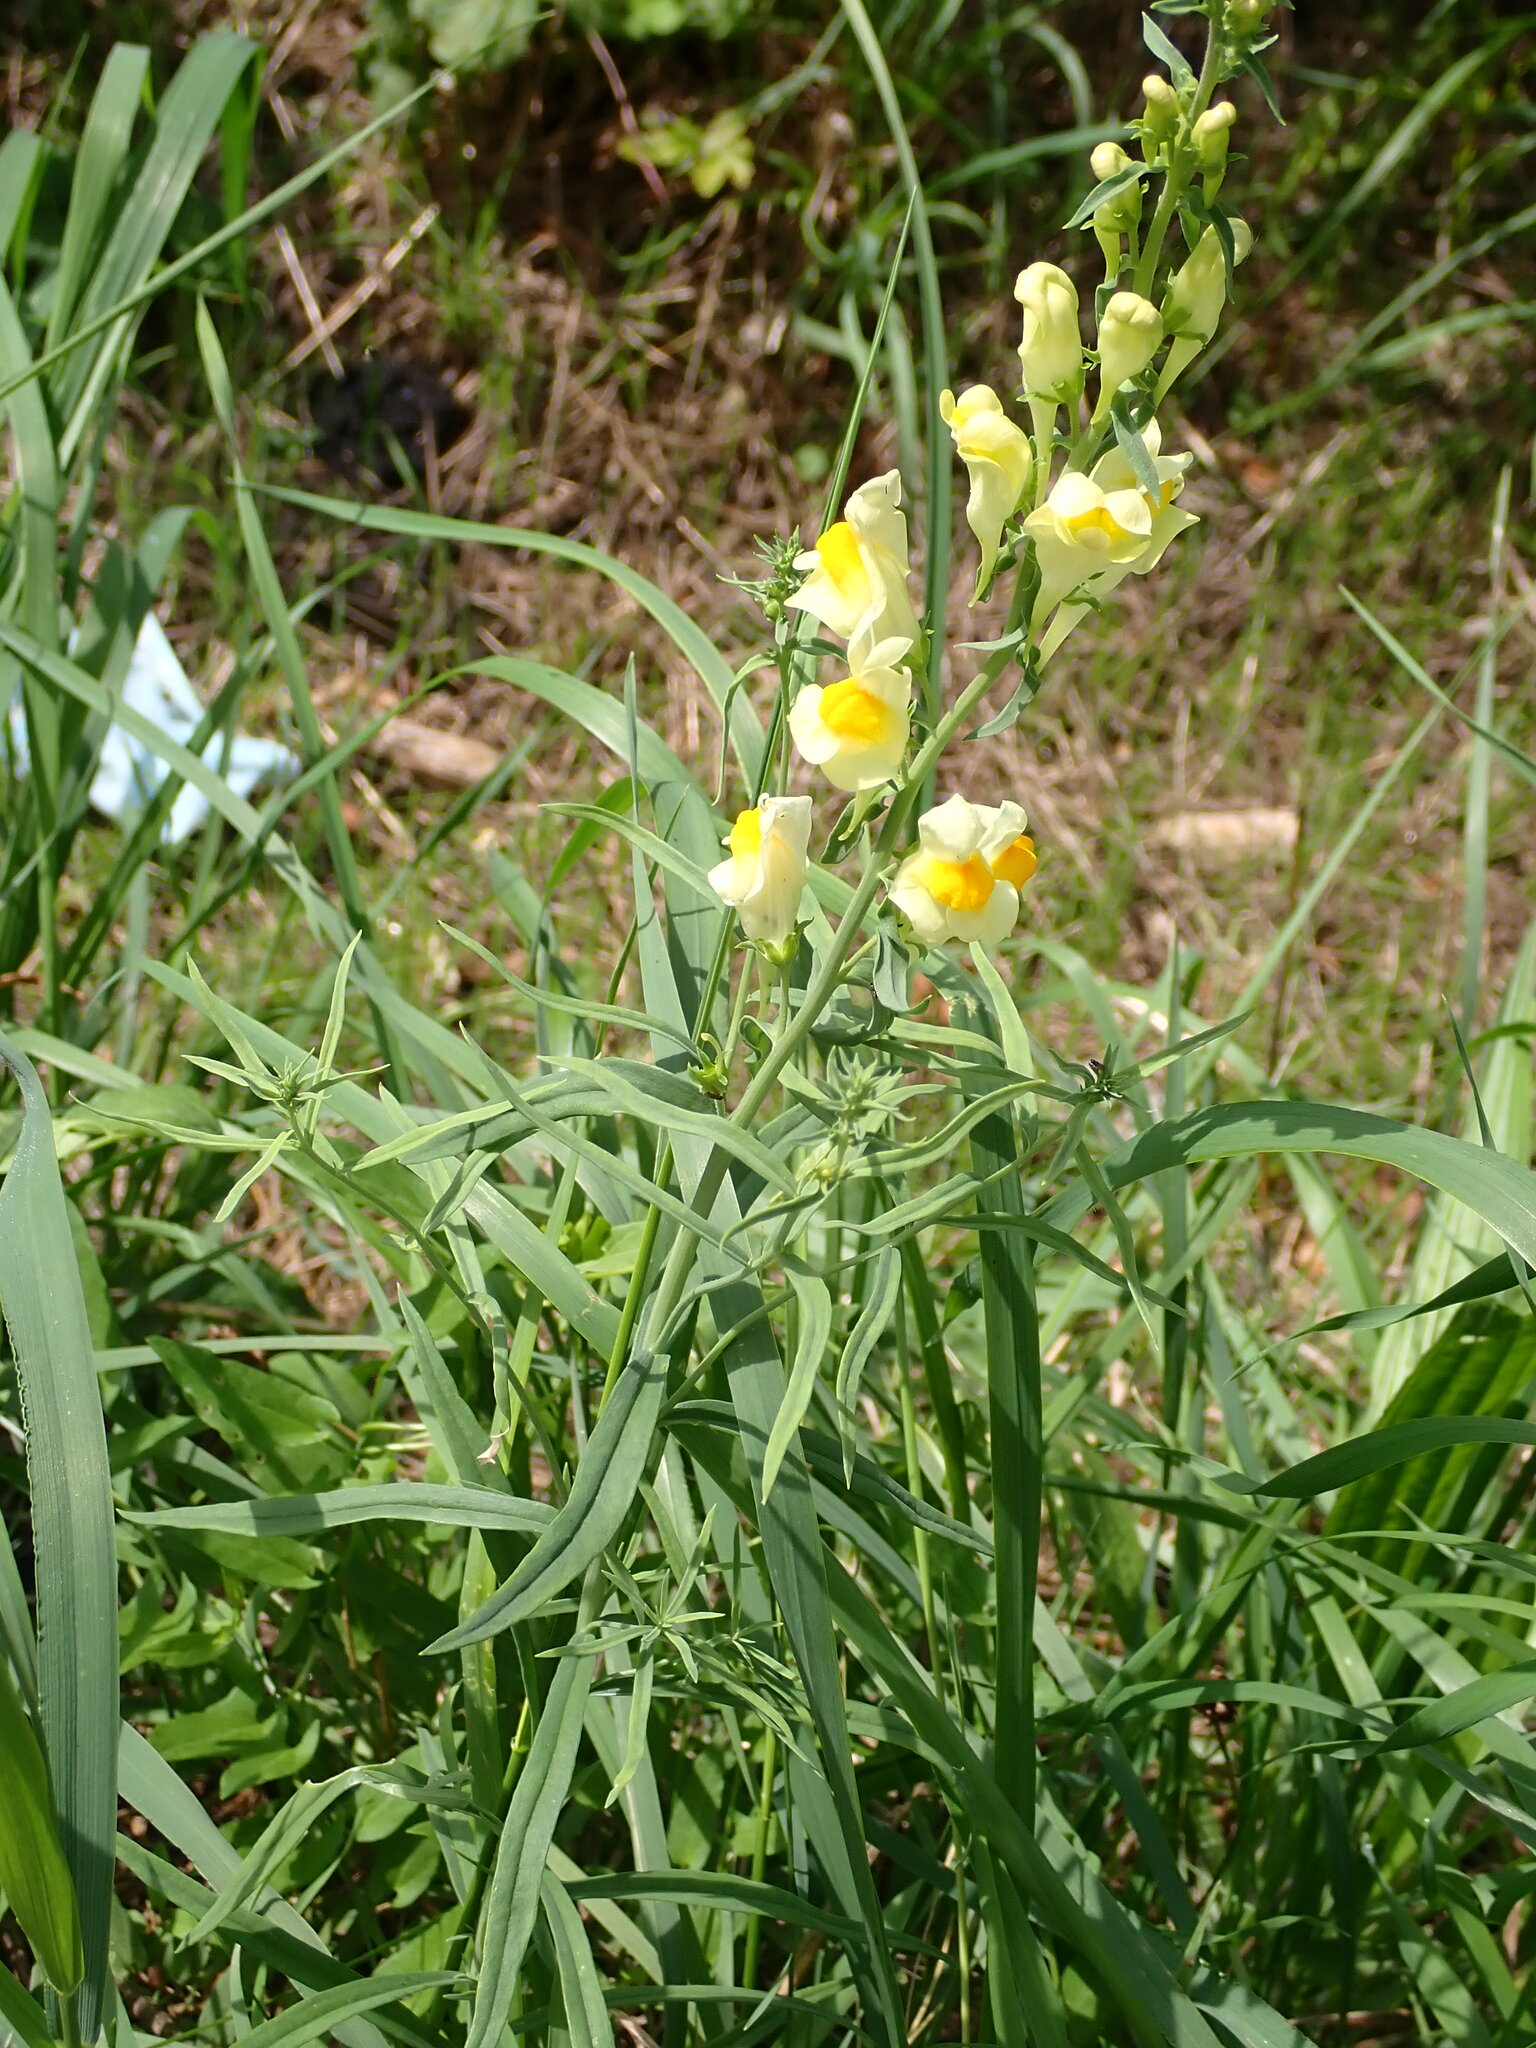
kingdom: Plantae
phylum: Tracheophyta
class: Magnoliopsida
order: Lamiales
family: Plantaginaceae
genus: Linaria
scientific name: Linaria vulgaris
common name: Butter and eggs
